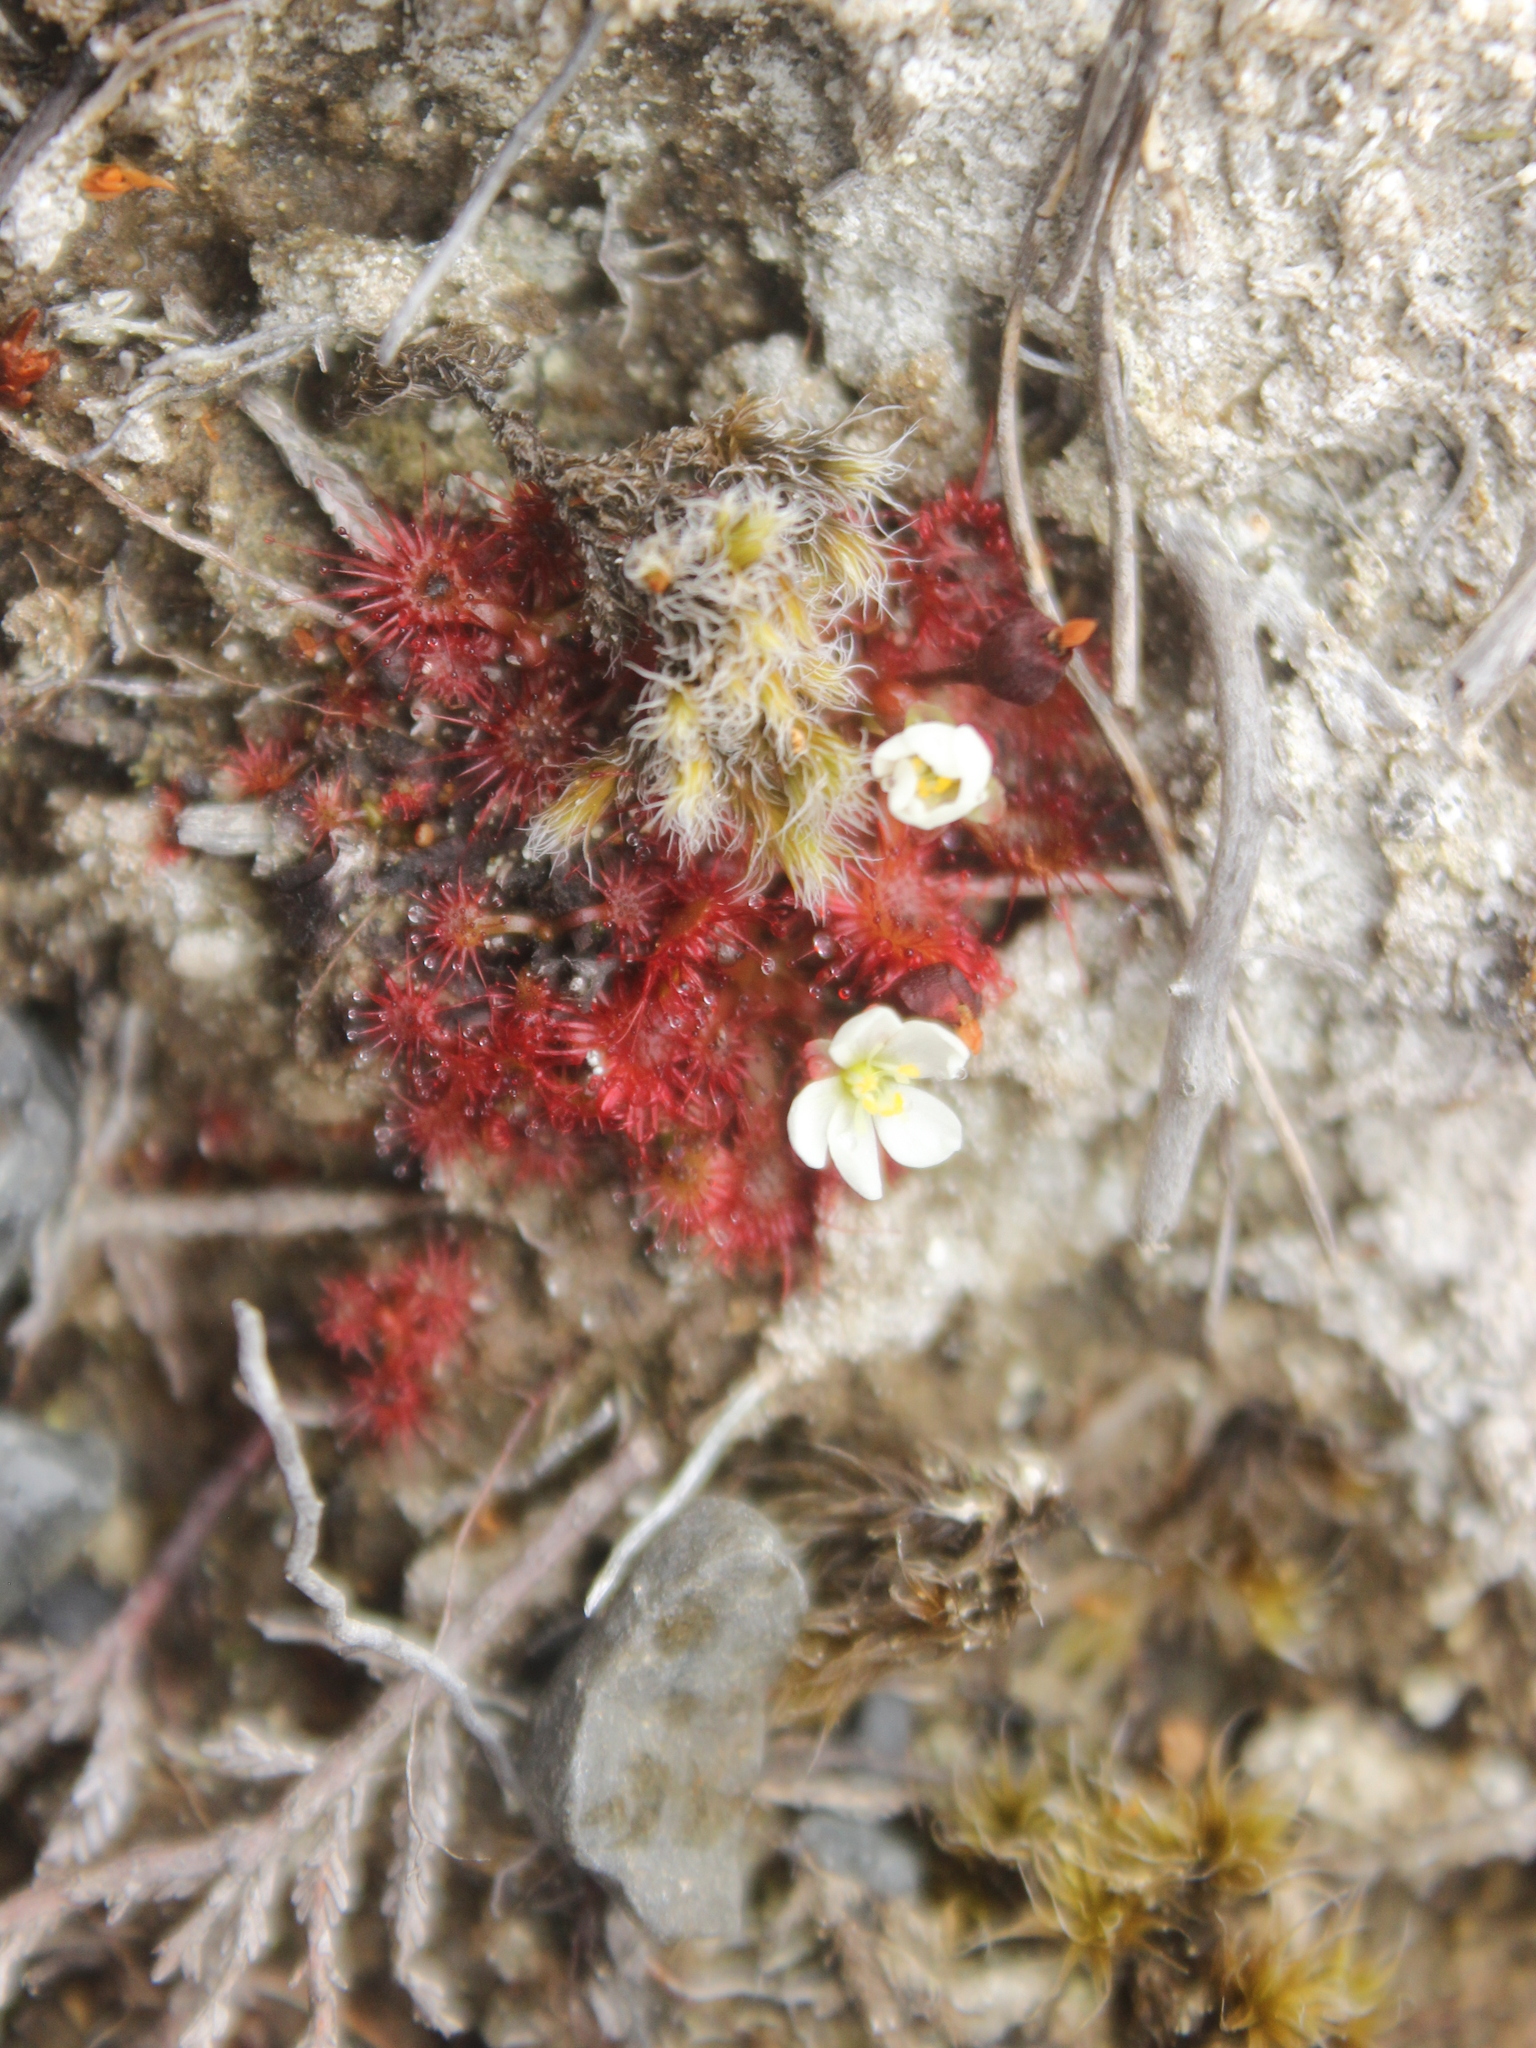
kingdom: Plantae
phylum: Tracheophyta
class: Magnoliopsida
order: Caryophyllales
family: Droseraceae
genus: Drosera
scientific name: Drosera spatulata
